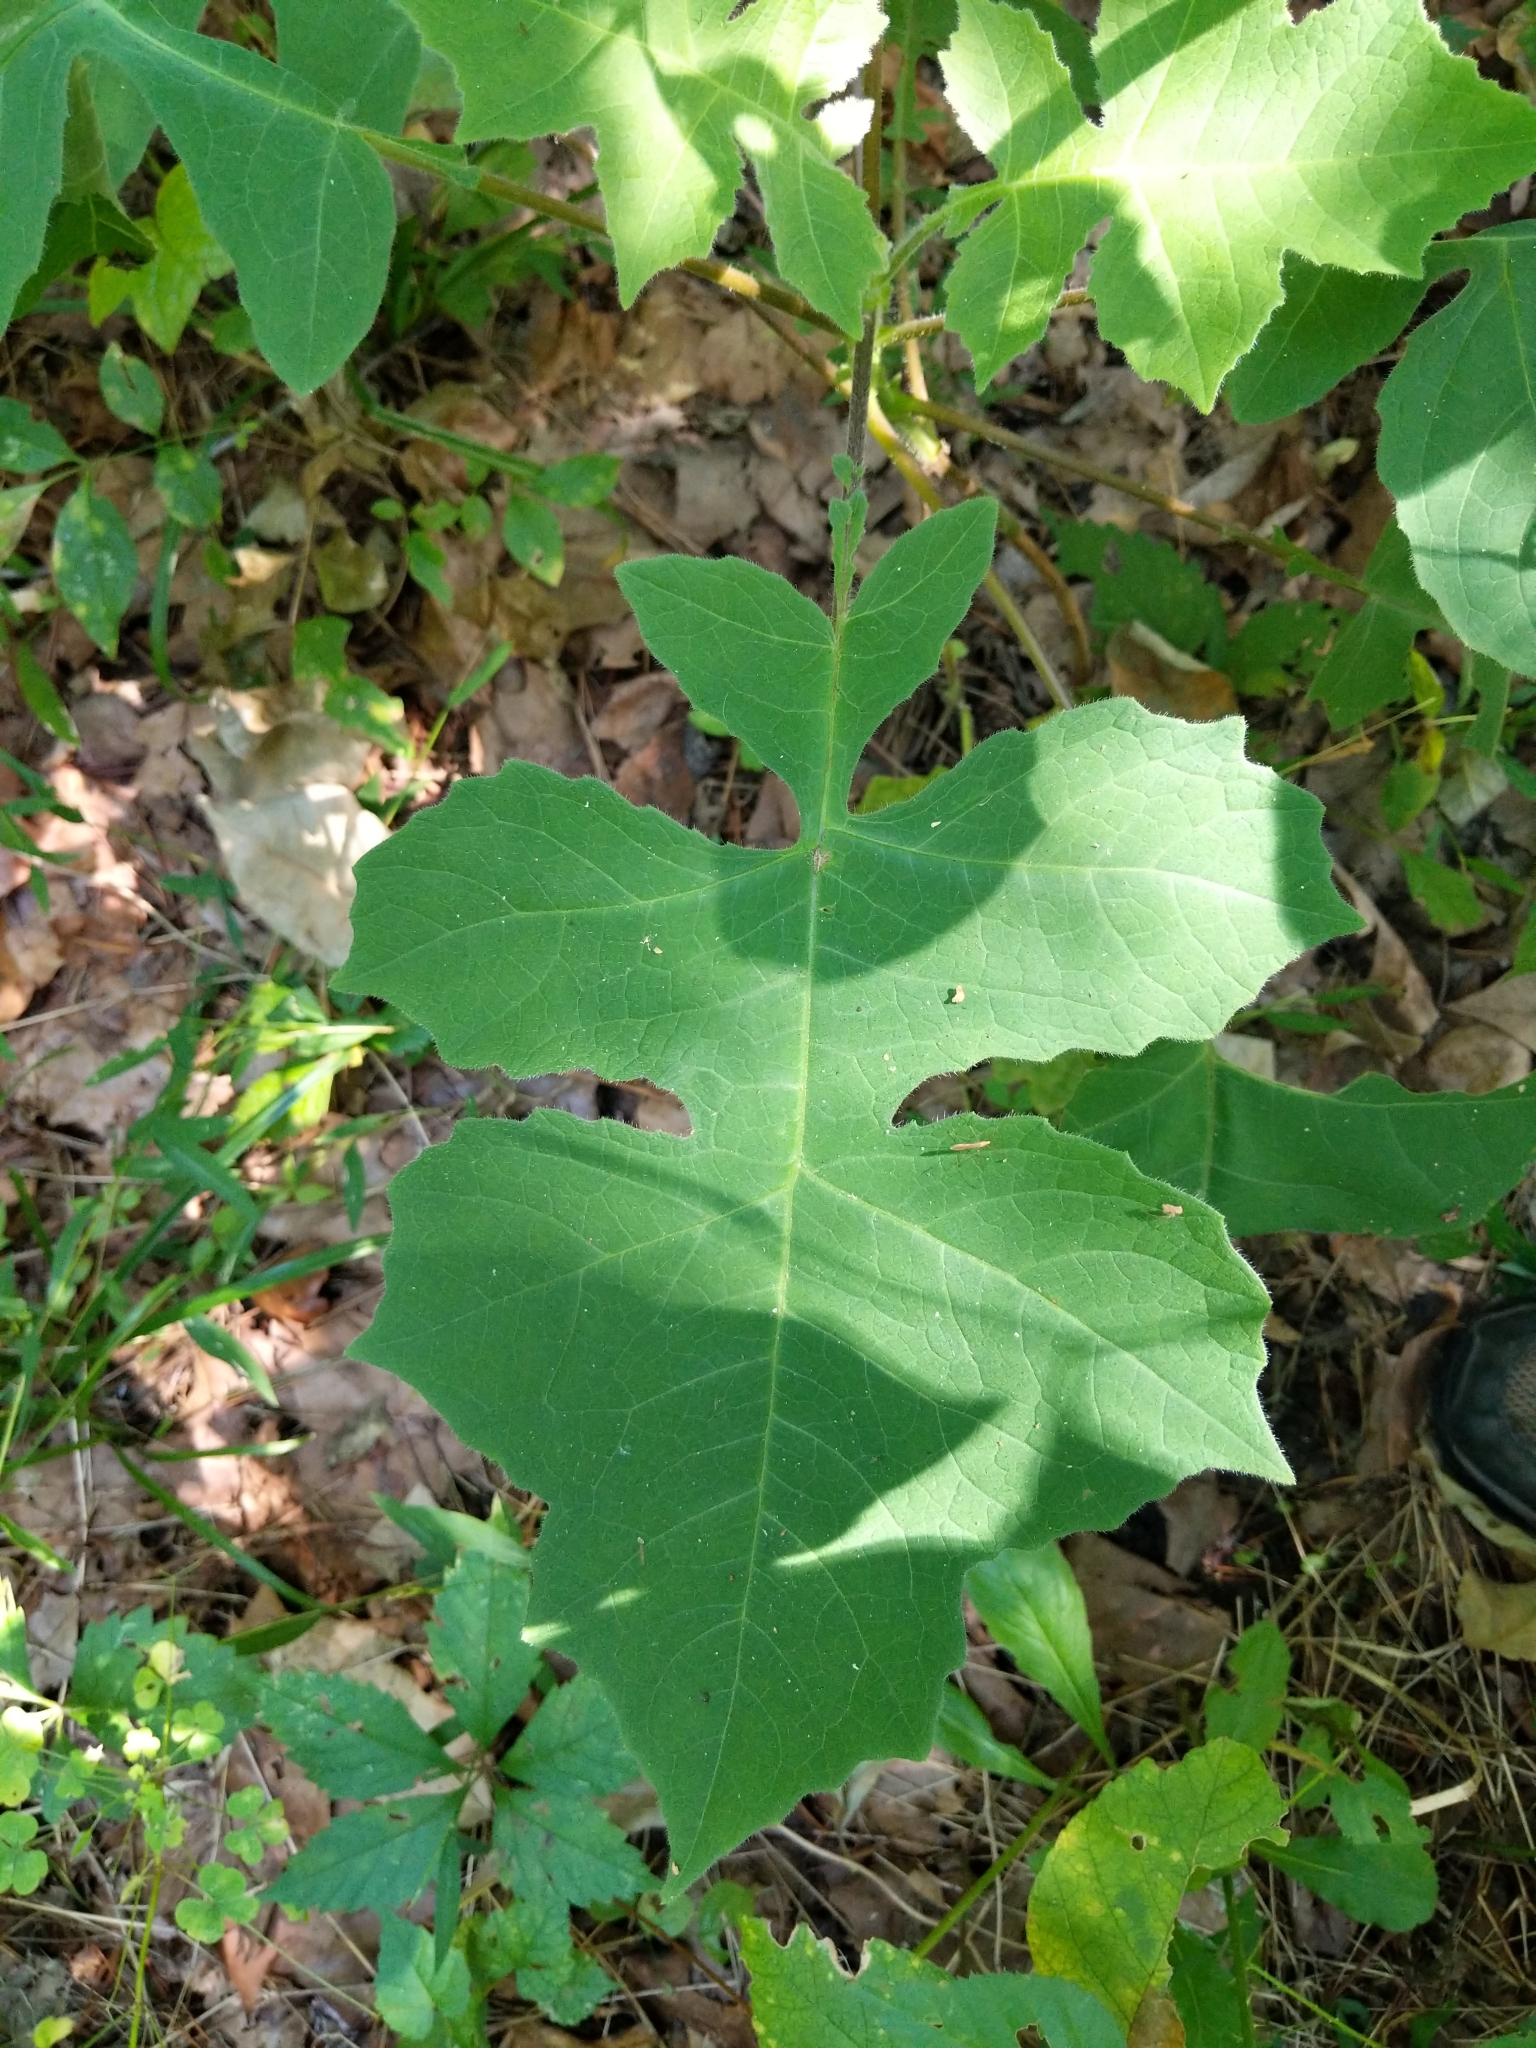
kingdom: Plantae
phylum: Tracheophyta
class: Magnoliopsida
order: Asterales
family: Asteraceae
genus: Polymnia
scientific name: Polymnia canadensis
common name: Pale-flowered leafcup
